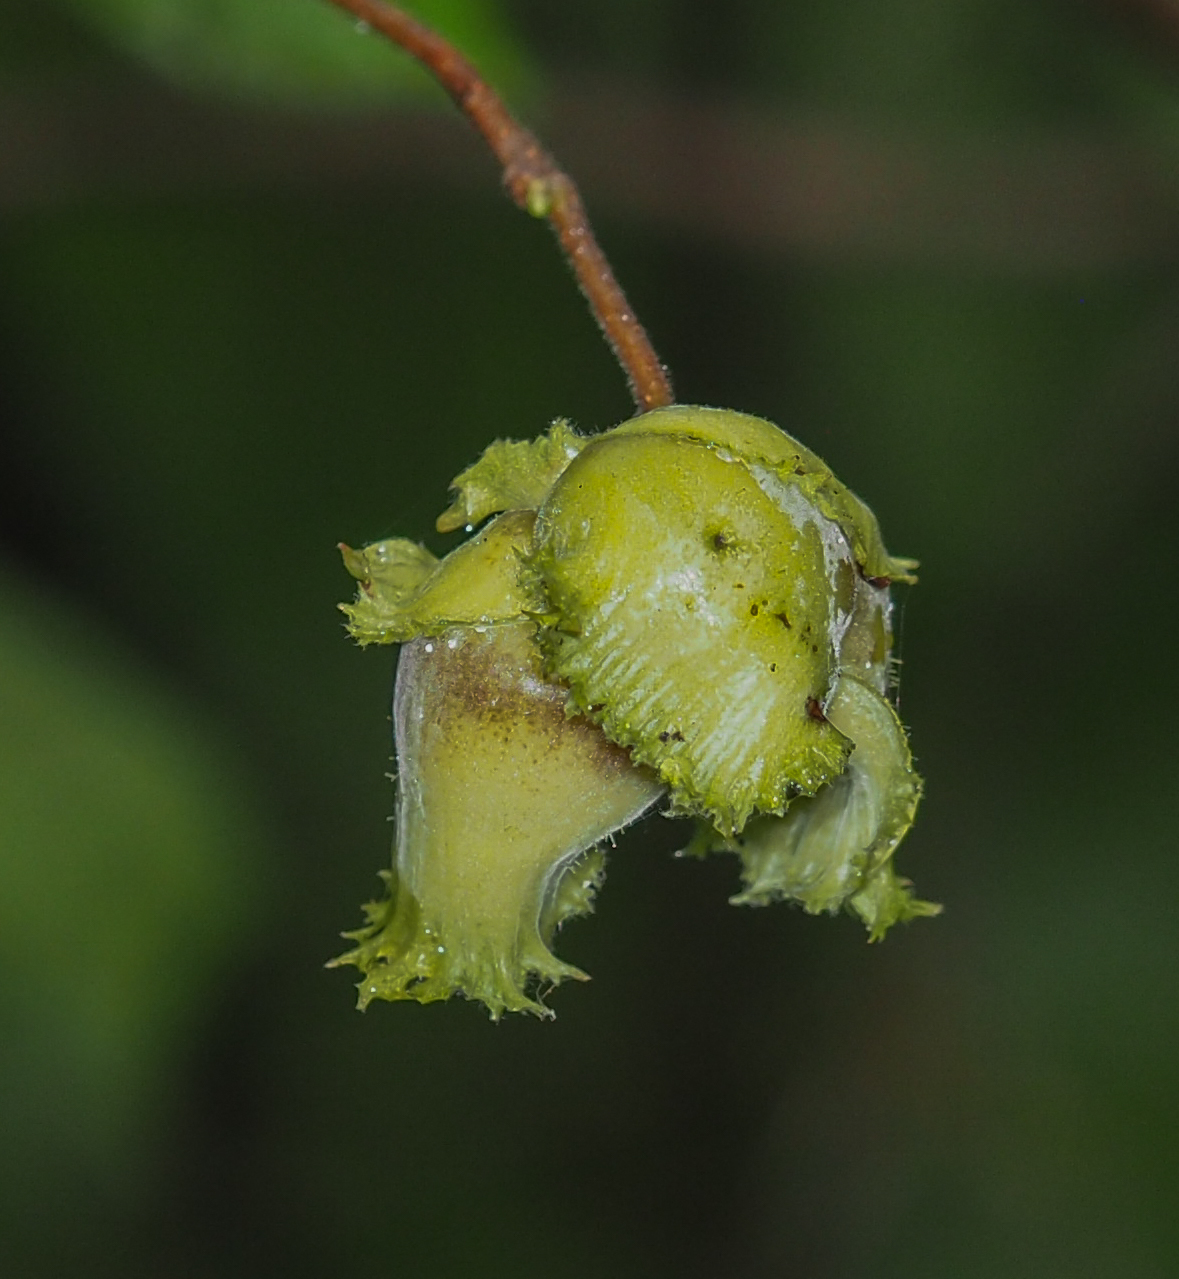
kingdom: Plantae
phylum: Tracheophyta
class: Magnoliopsida
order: Fagales
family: Betulaceae
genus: Corylus
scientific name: Corylus americana
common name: American hazel
